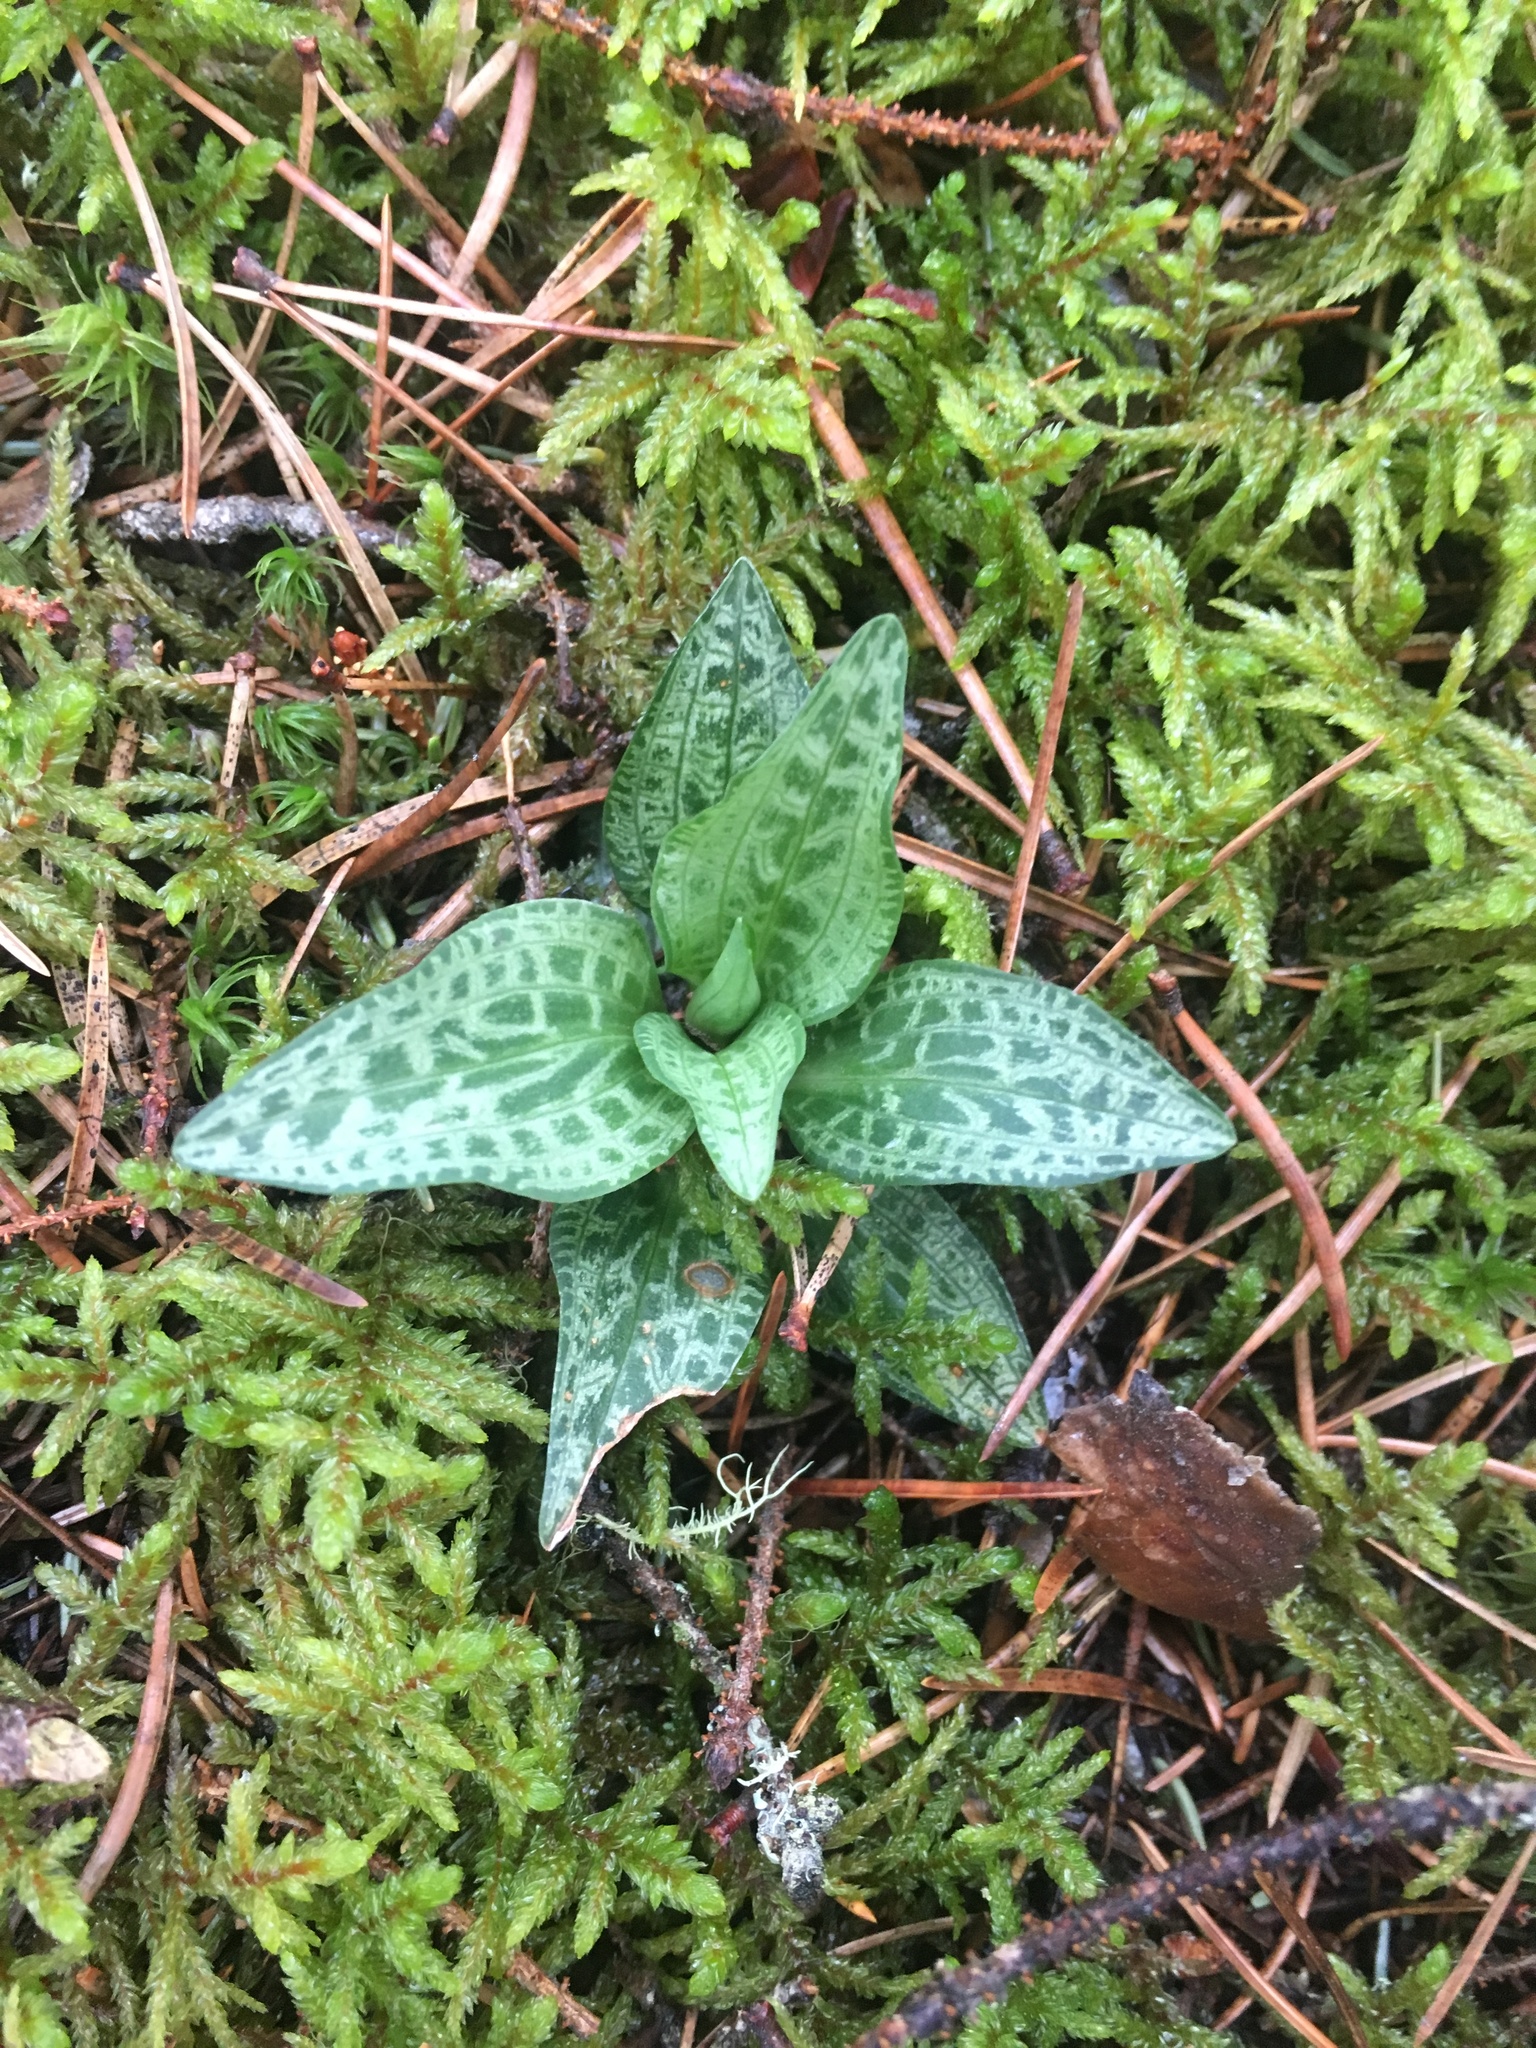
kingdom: Plantae
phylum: Tracheophyta
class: Liliopsida
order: Asparagales
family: Orchidaceae
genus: Goodyera
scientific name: Goodyera tesselata
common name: Checkered rattlesnake-plantain
